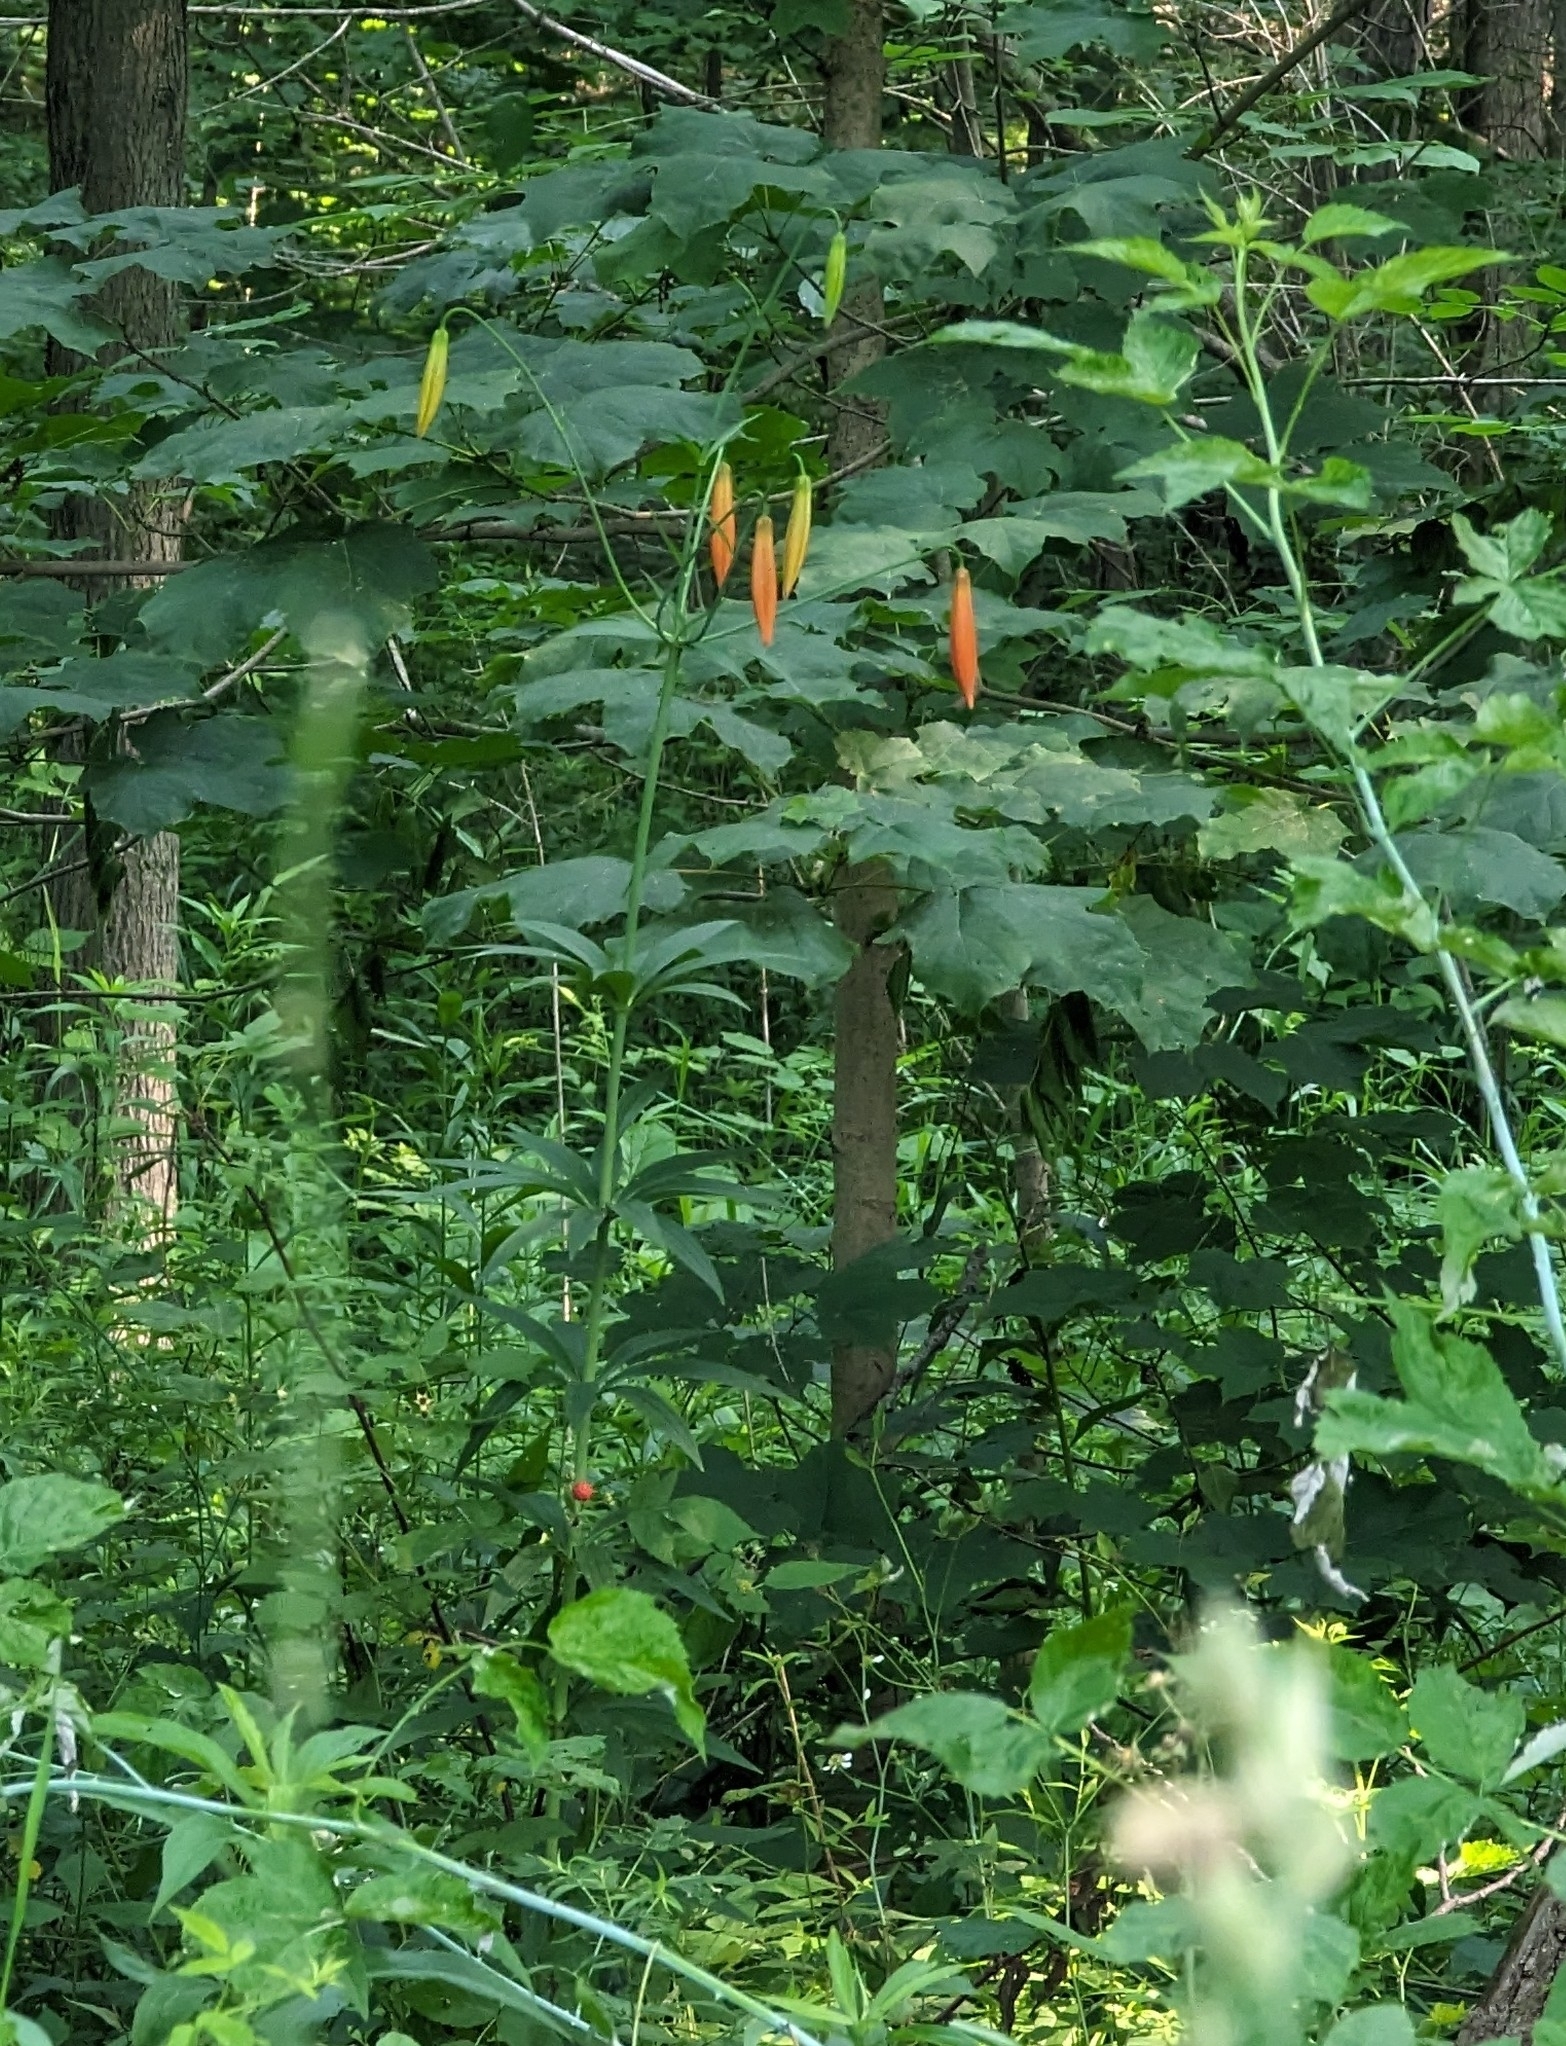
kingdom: Plantae
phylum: Tracheophyta
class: Liliopsida
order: Liliales
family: Liliaceae
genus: Lilium
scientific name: Lilium michiganense
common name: Michigan lily
